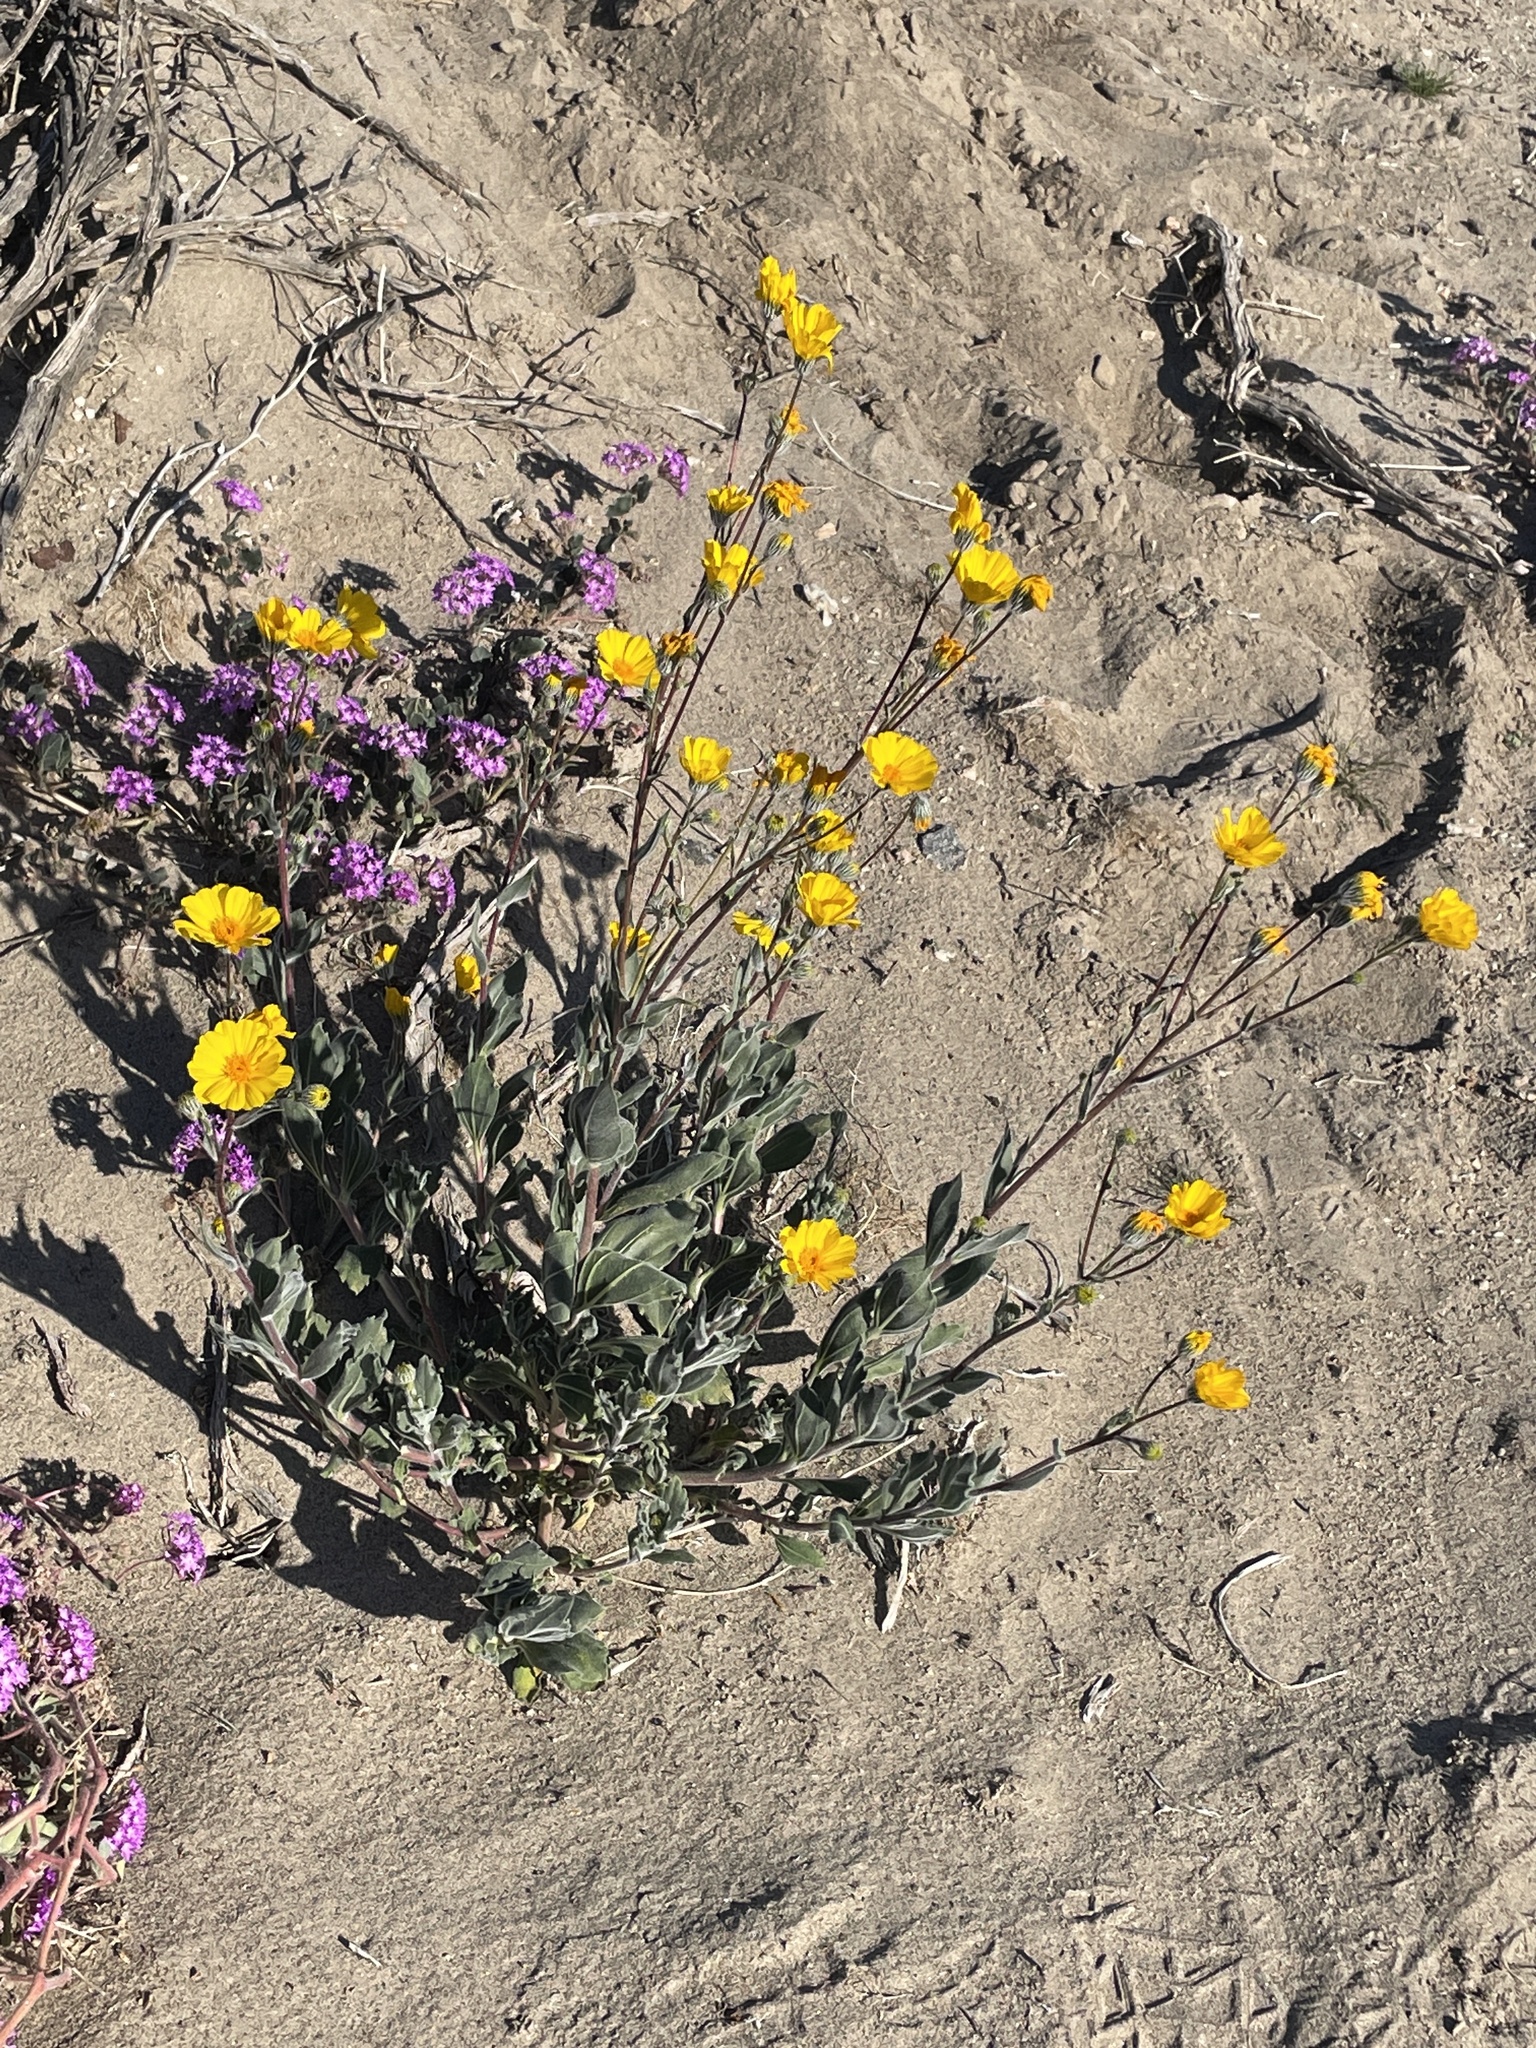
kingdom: Plantae
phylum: Tracheophyta
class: Magnoliopsida
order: Asterales
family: Asteraceae
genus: Geraea
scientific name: Geraea canescens
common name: Desert-gold
